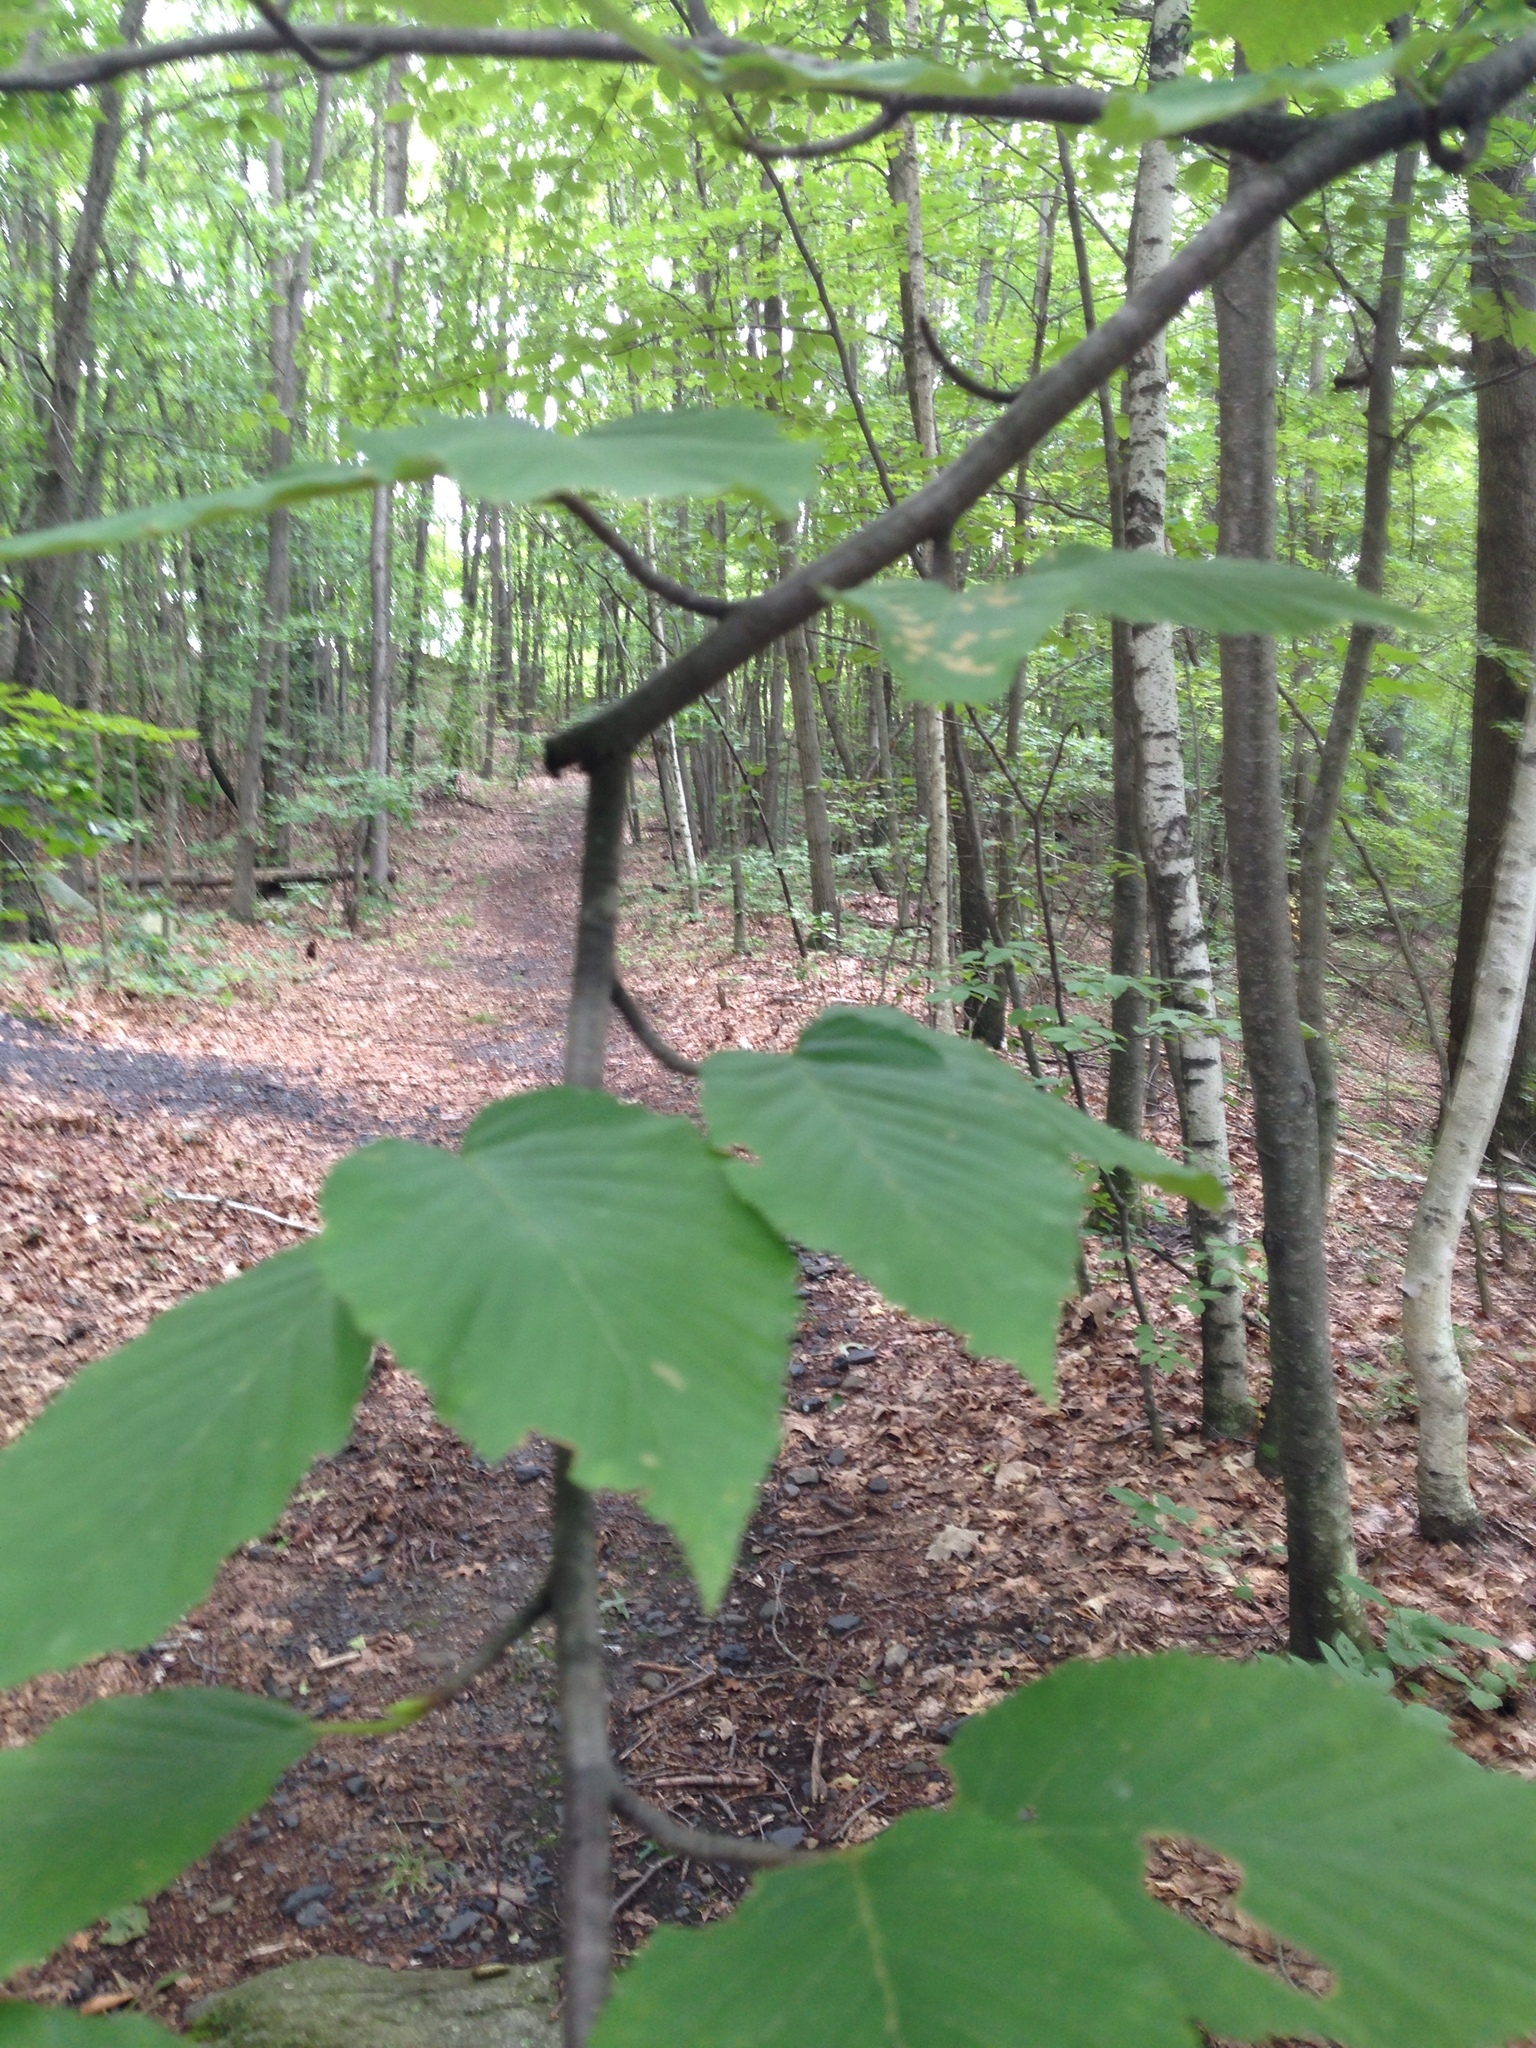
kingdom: Plantae
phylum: Tracheophyta
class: Magnoliopsida
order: Fagales
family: Betulaceae
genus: Betula
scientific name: Betula lenta
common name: Black birch
